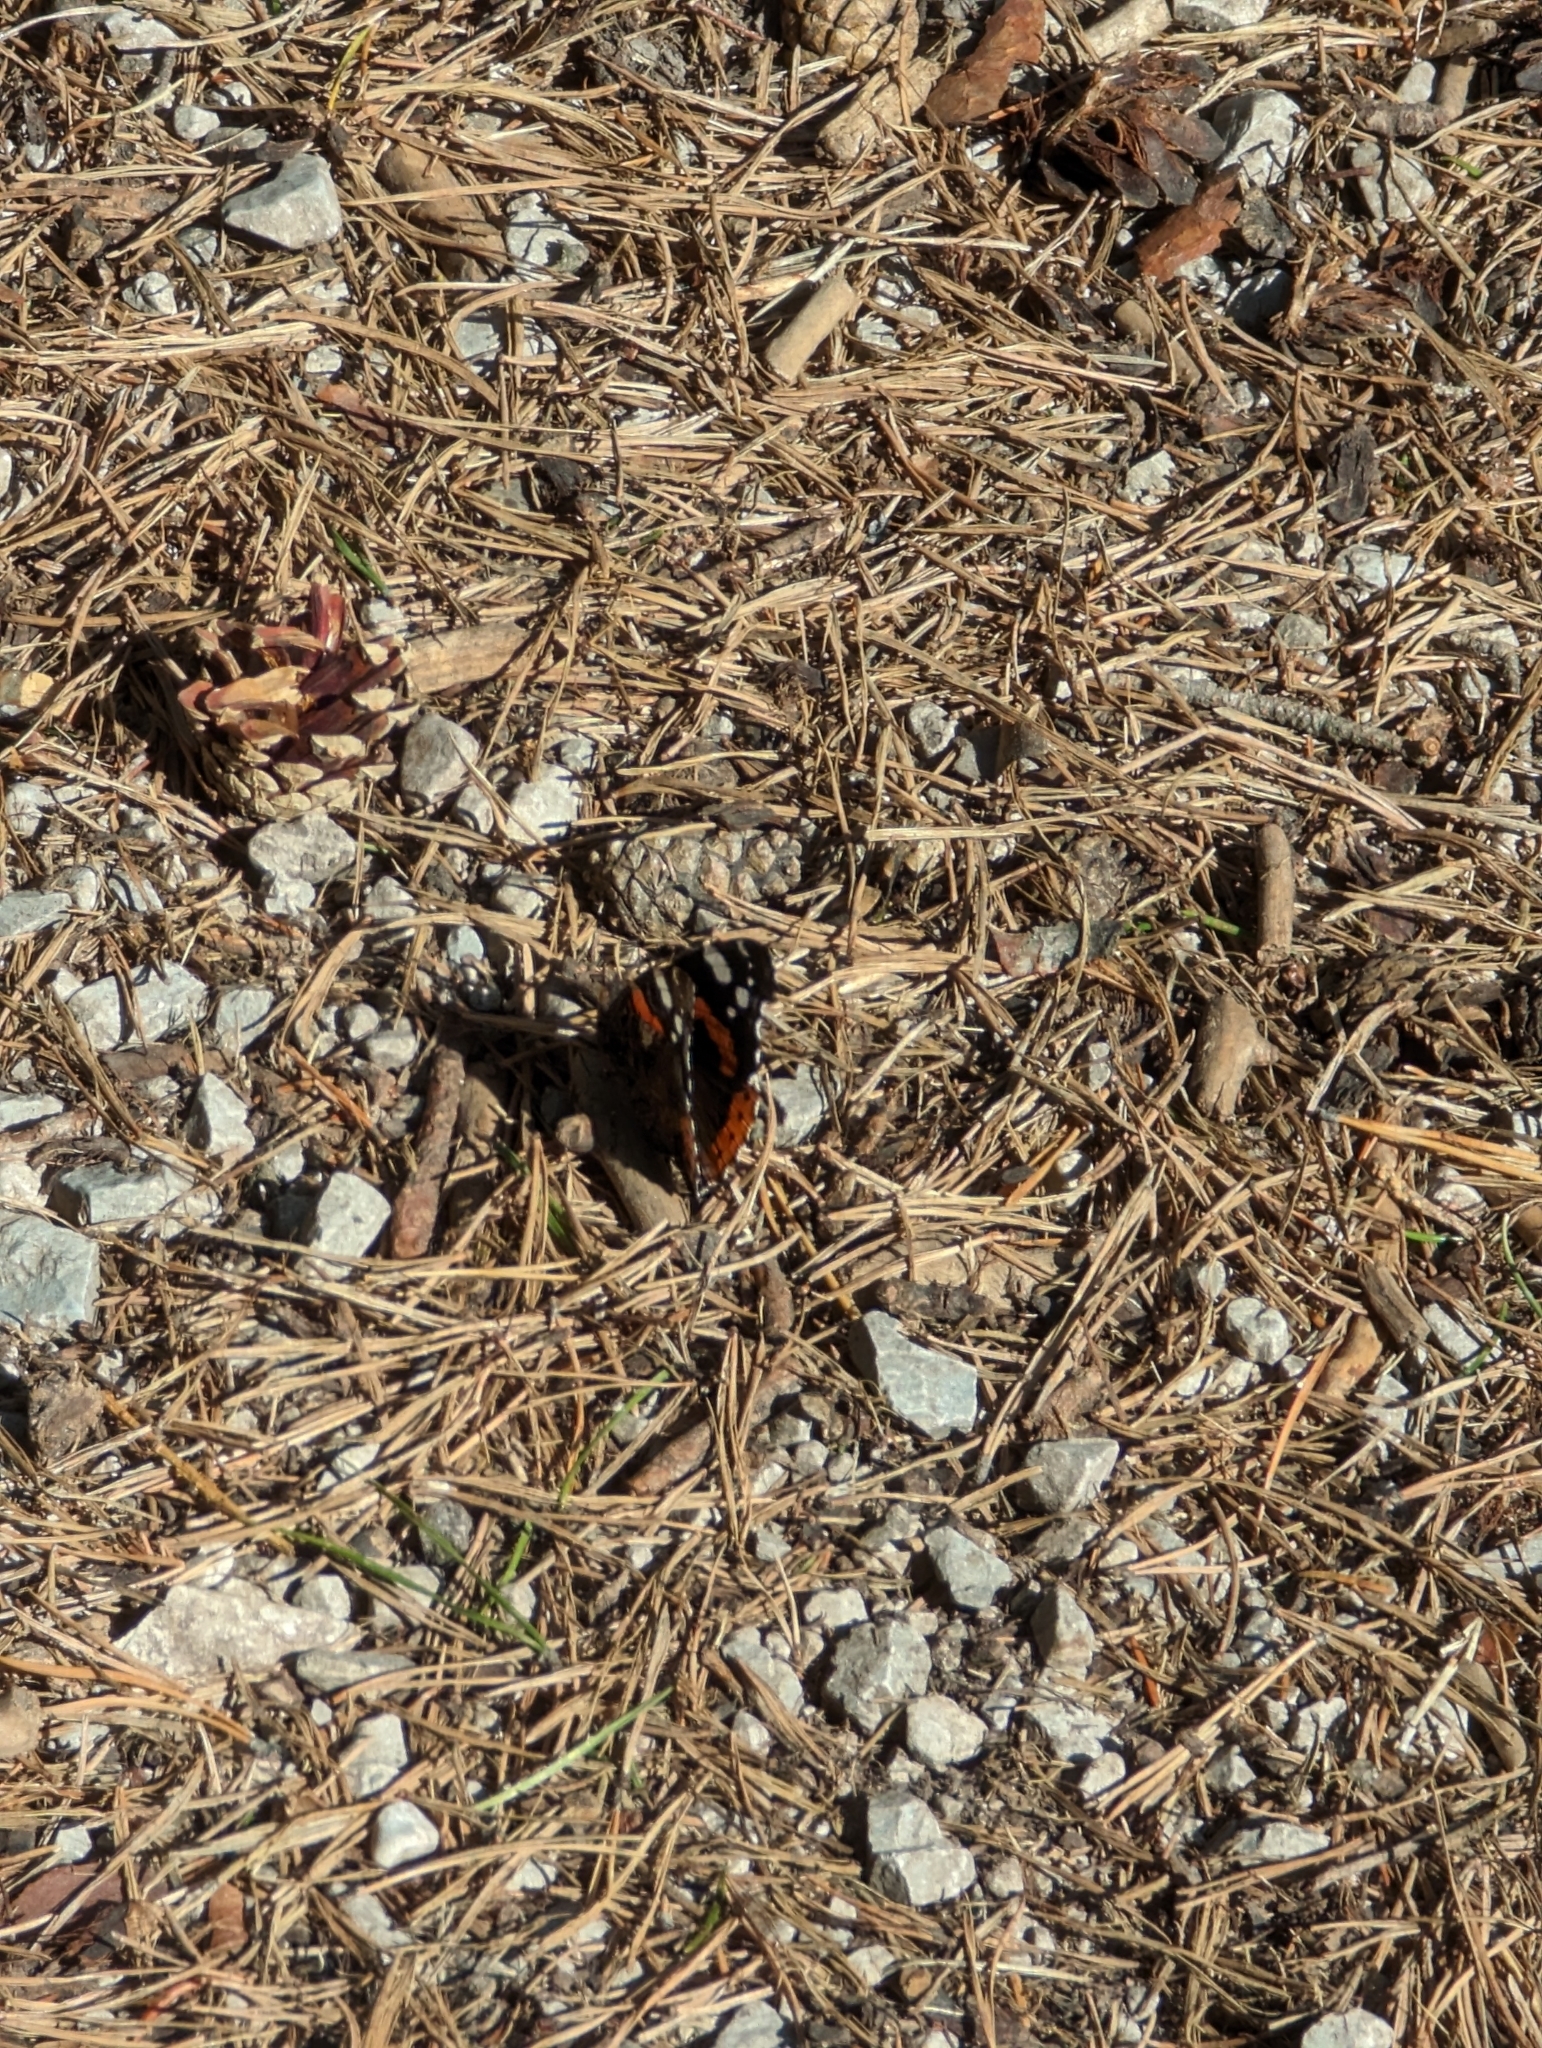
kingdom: Animalia
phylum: Arthropoda
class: Insecta
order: Lepidoptera
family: Nymphalidae
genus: Vanessa
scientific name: Vanessa atalanta
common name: Red admiral
